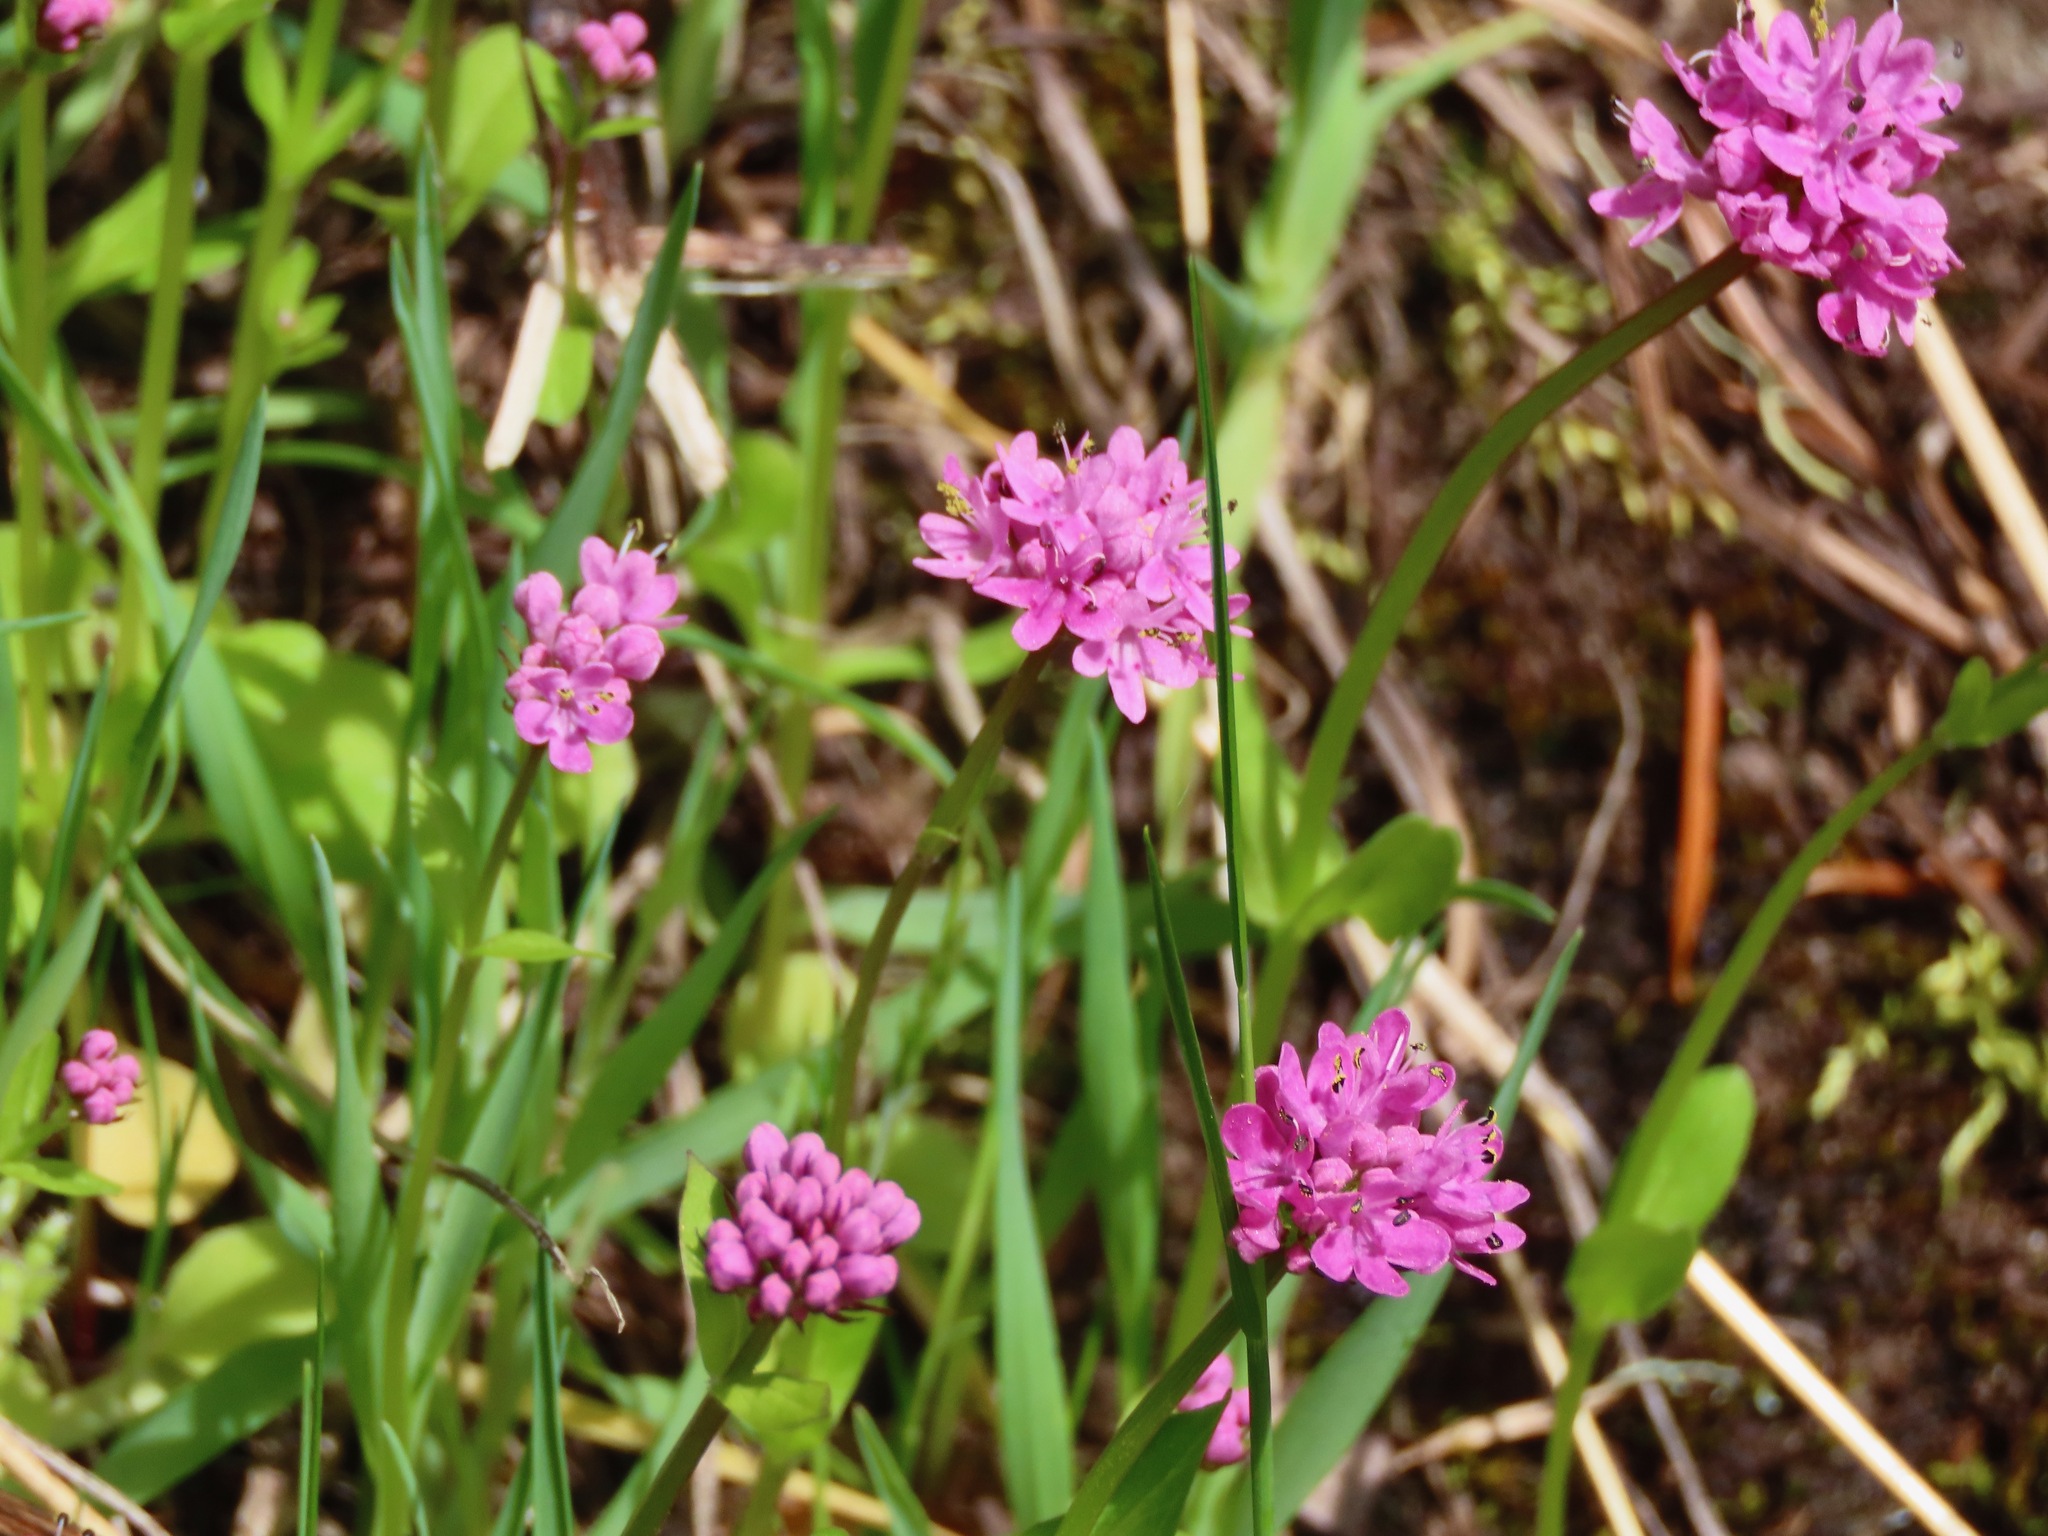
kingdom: Plantae
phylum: Tracheophyta
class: Magnoliopsida
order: Dipsacales
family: Caprifoliaceae
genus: Plectritis
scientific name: Plectritis congesta
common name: Pink plectritis
